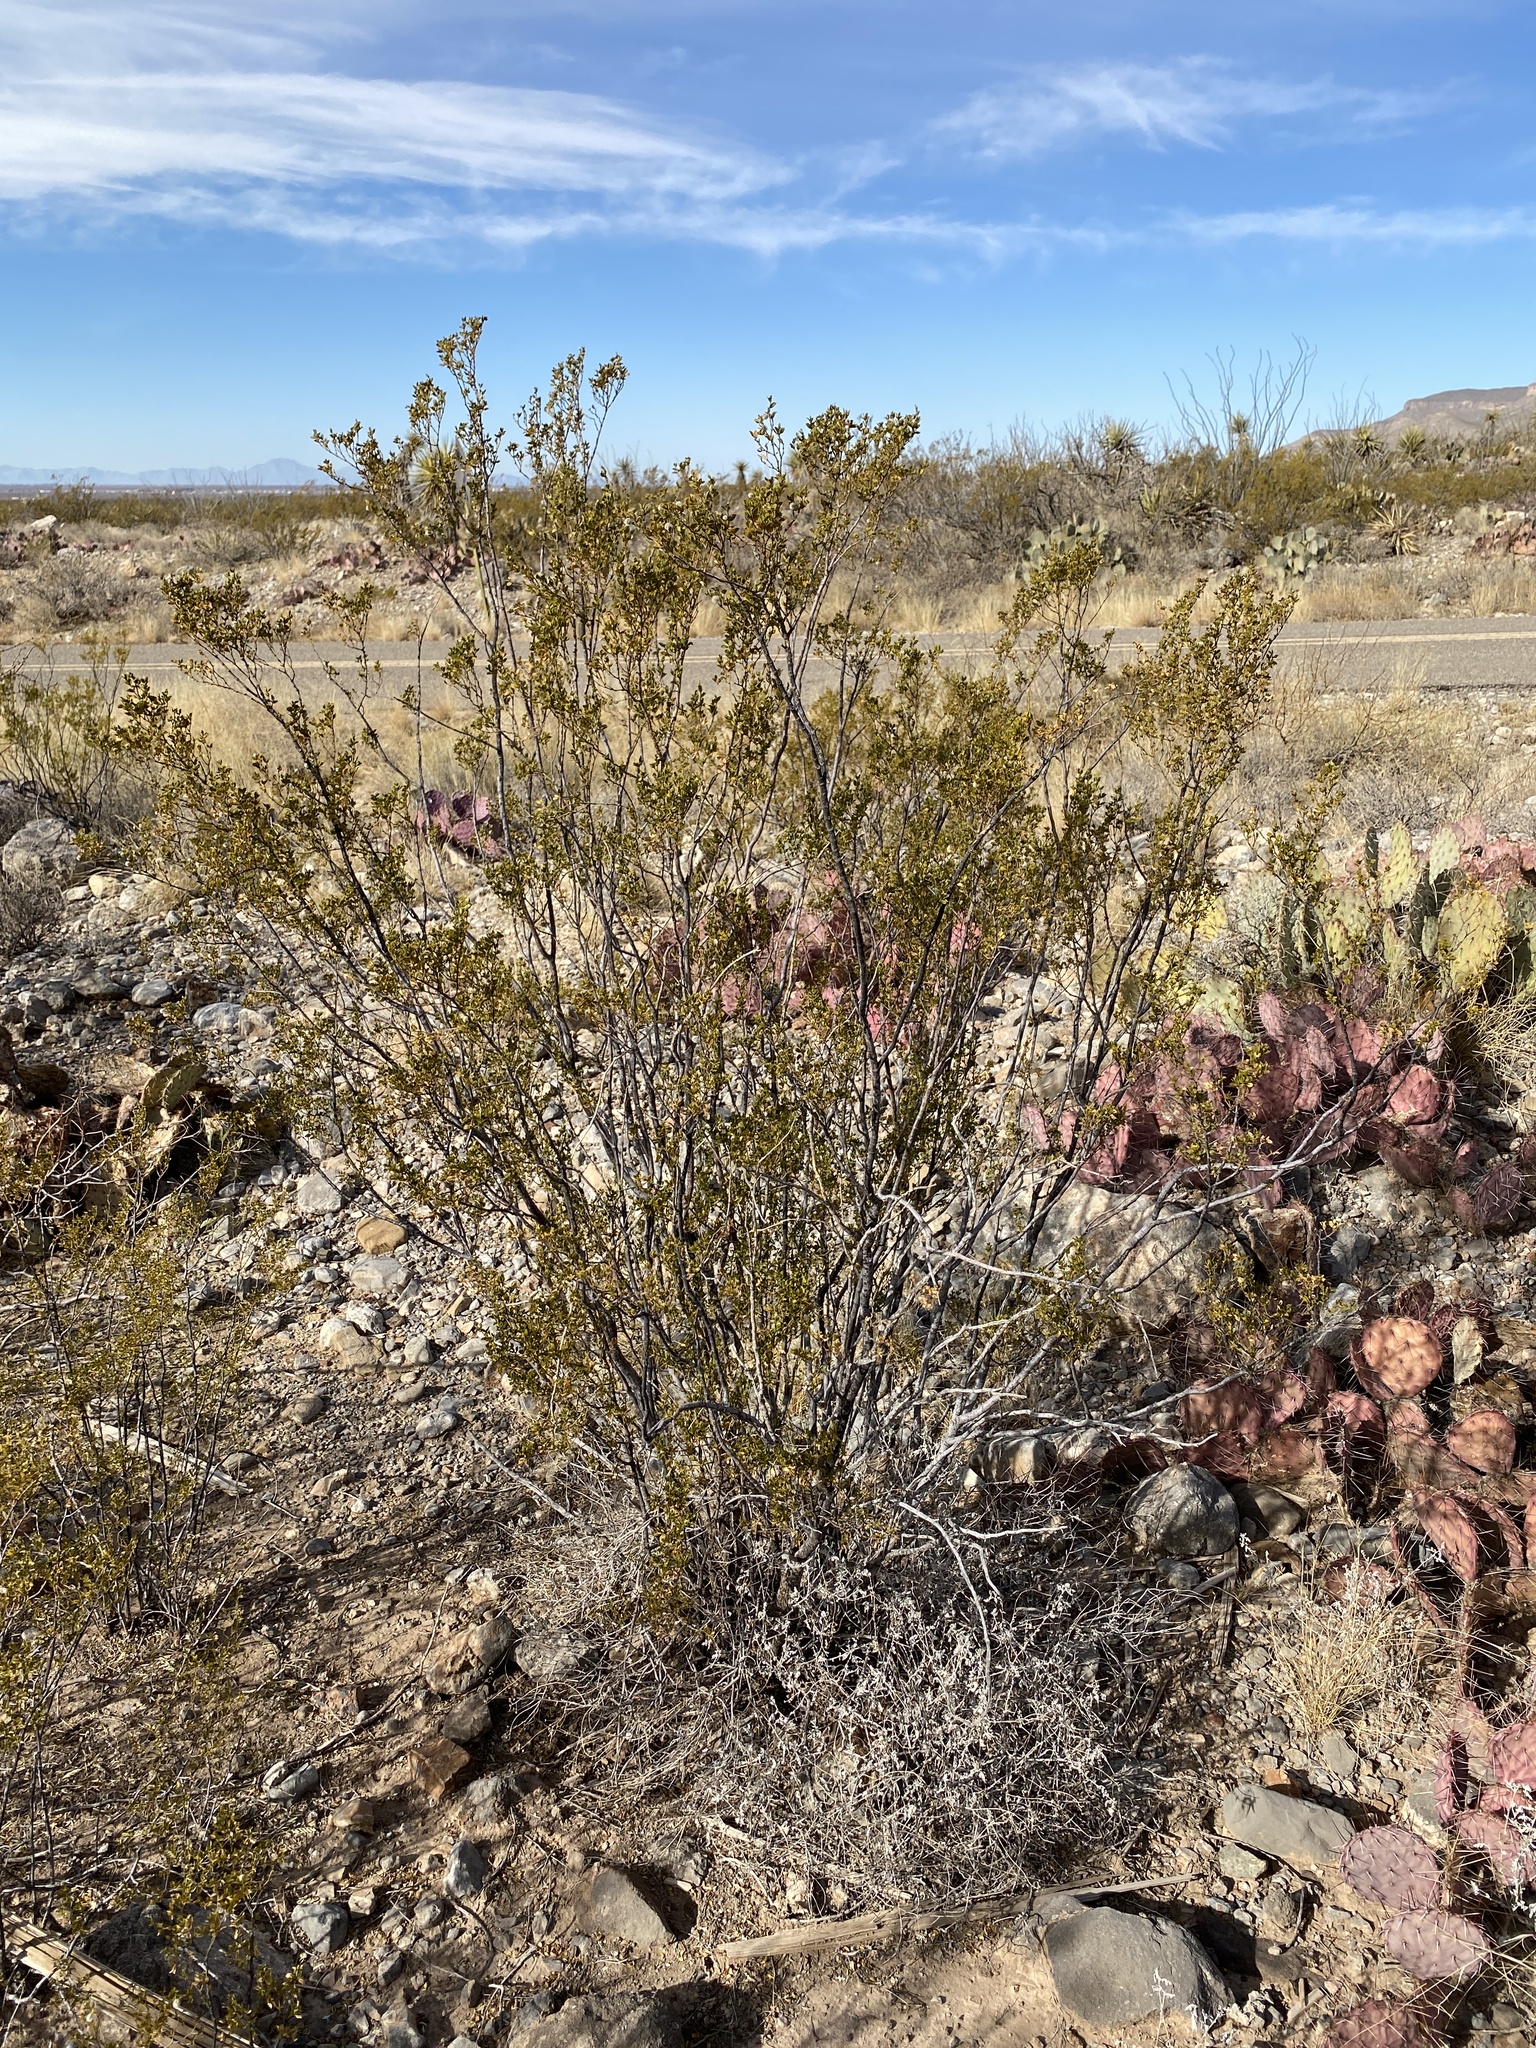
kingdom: Plantae
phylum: Tracheophyta
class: Magnoliopsida
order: Zygophyllales
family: Zygophyllaceae
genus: Larrea
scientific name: Larrea tridentata
